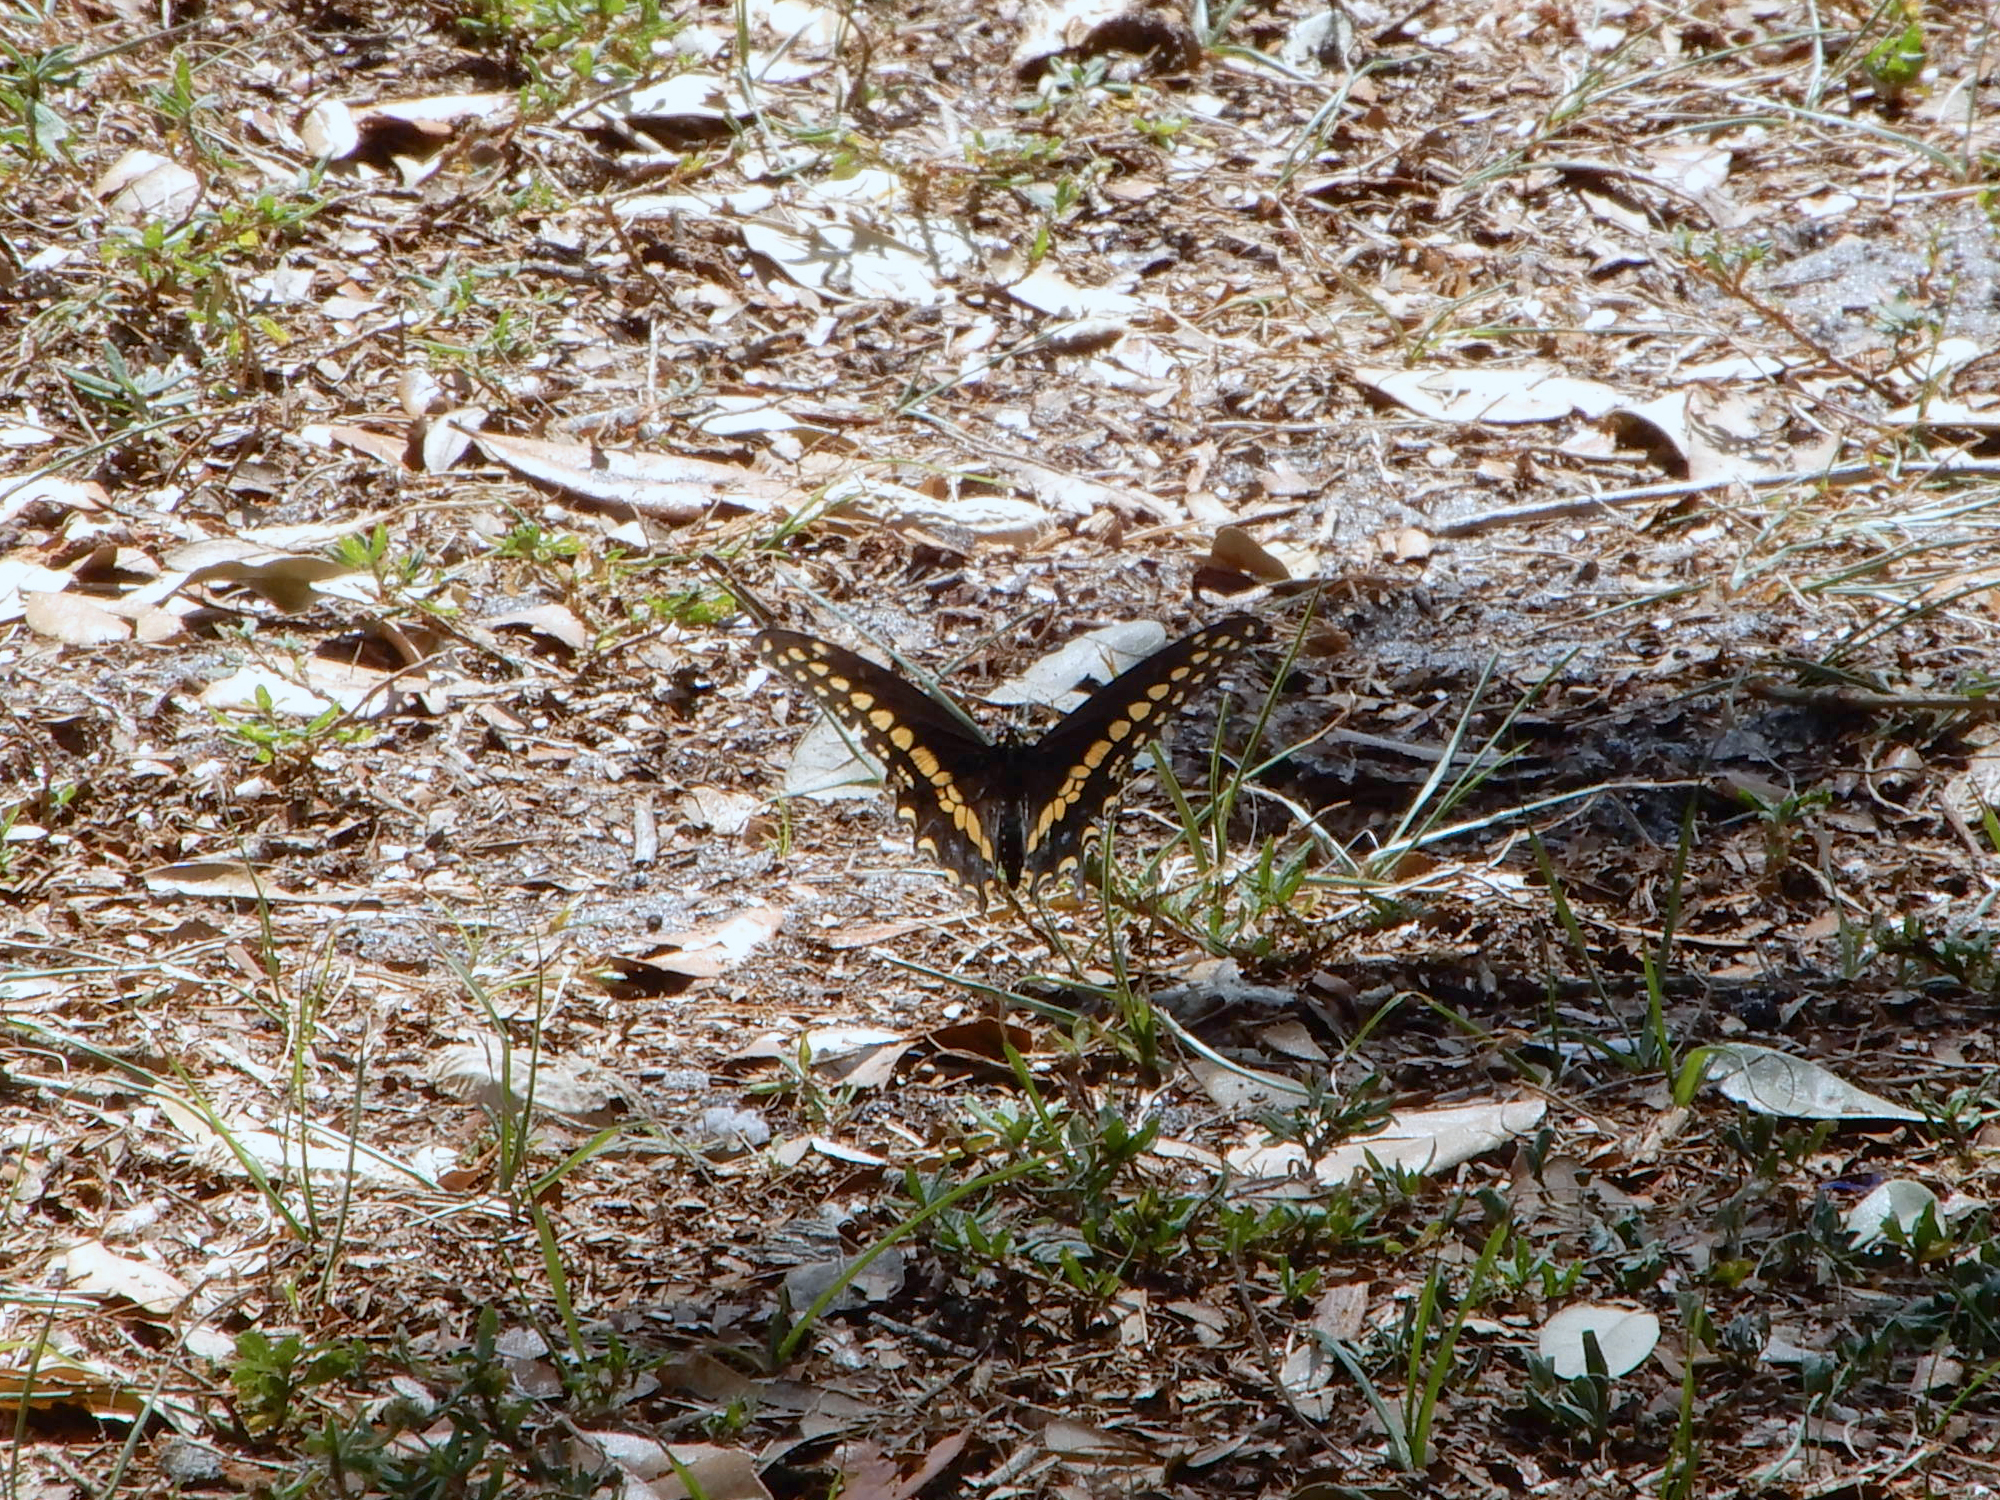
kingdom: Animalia
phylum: Arthropoda
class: Insecta
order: Lepidoptera
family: Papilionidae
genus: Papilio
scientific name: Papilio polyxenes
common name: Black swallowtail
